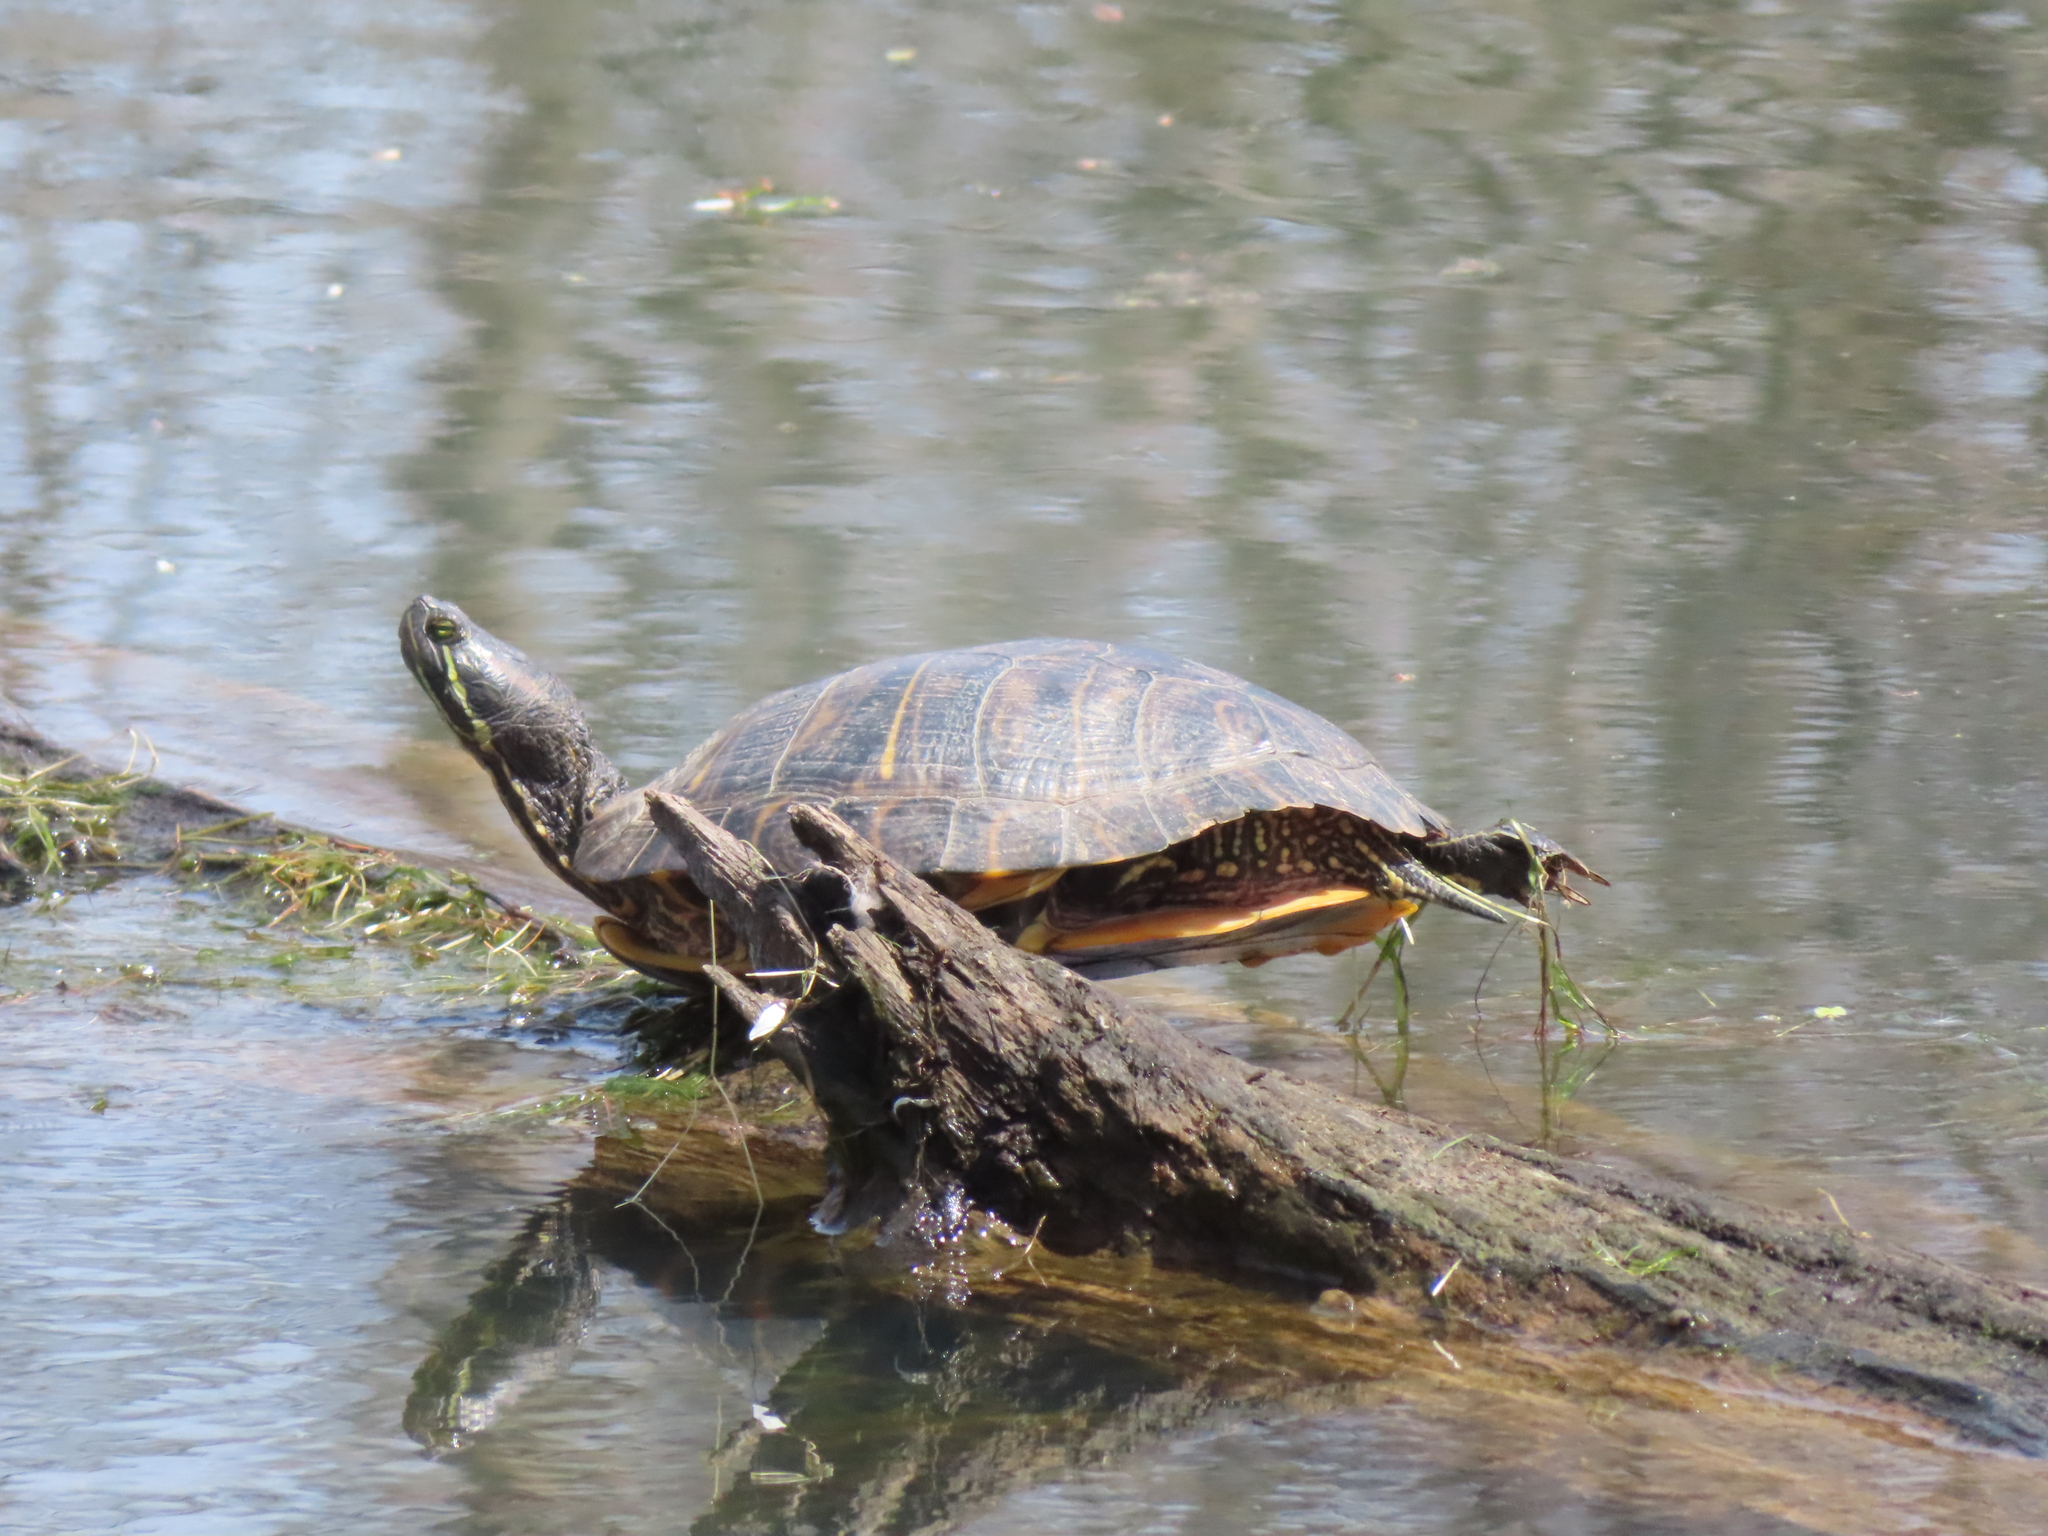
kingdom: Animalia
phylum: Chordata
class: Testudines
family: Emydidae
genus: Trachemys
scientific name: Trachemys scripta
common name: Slider
